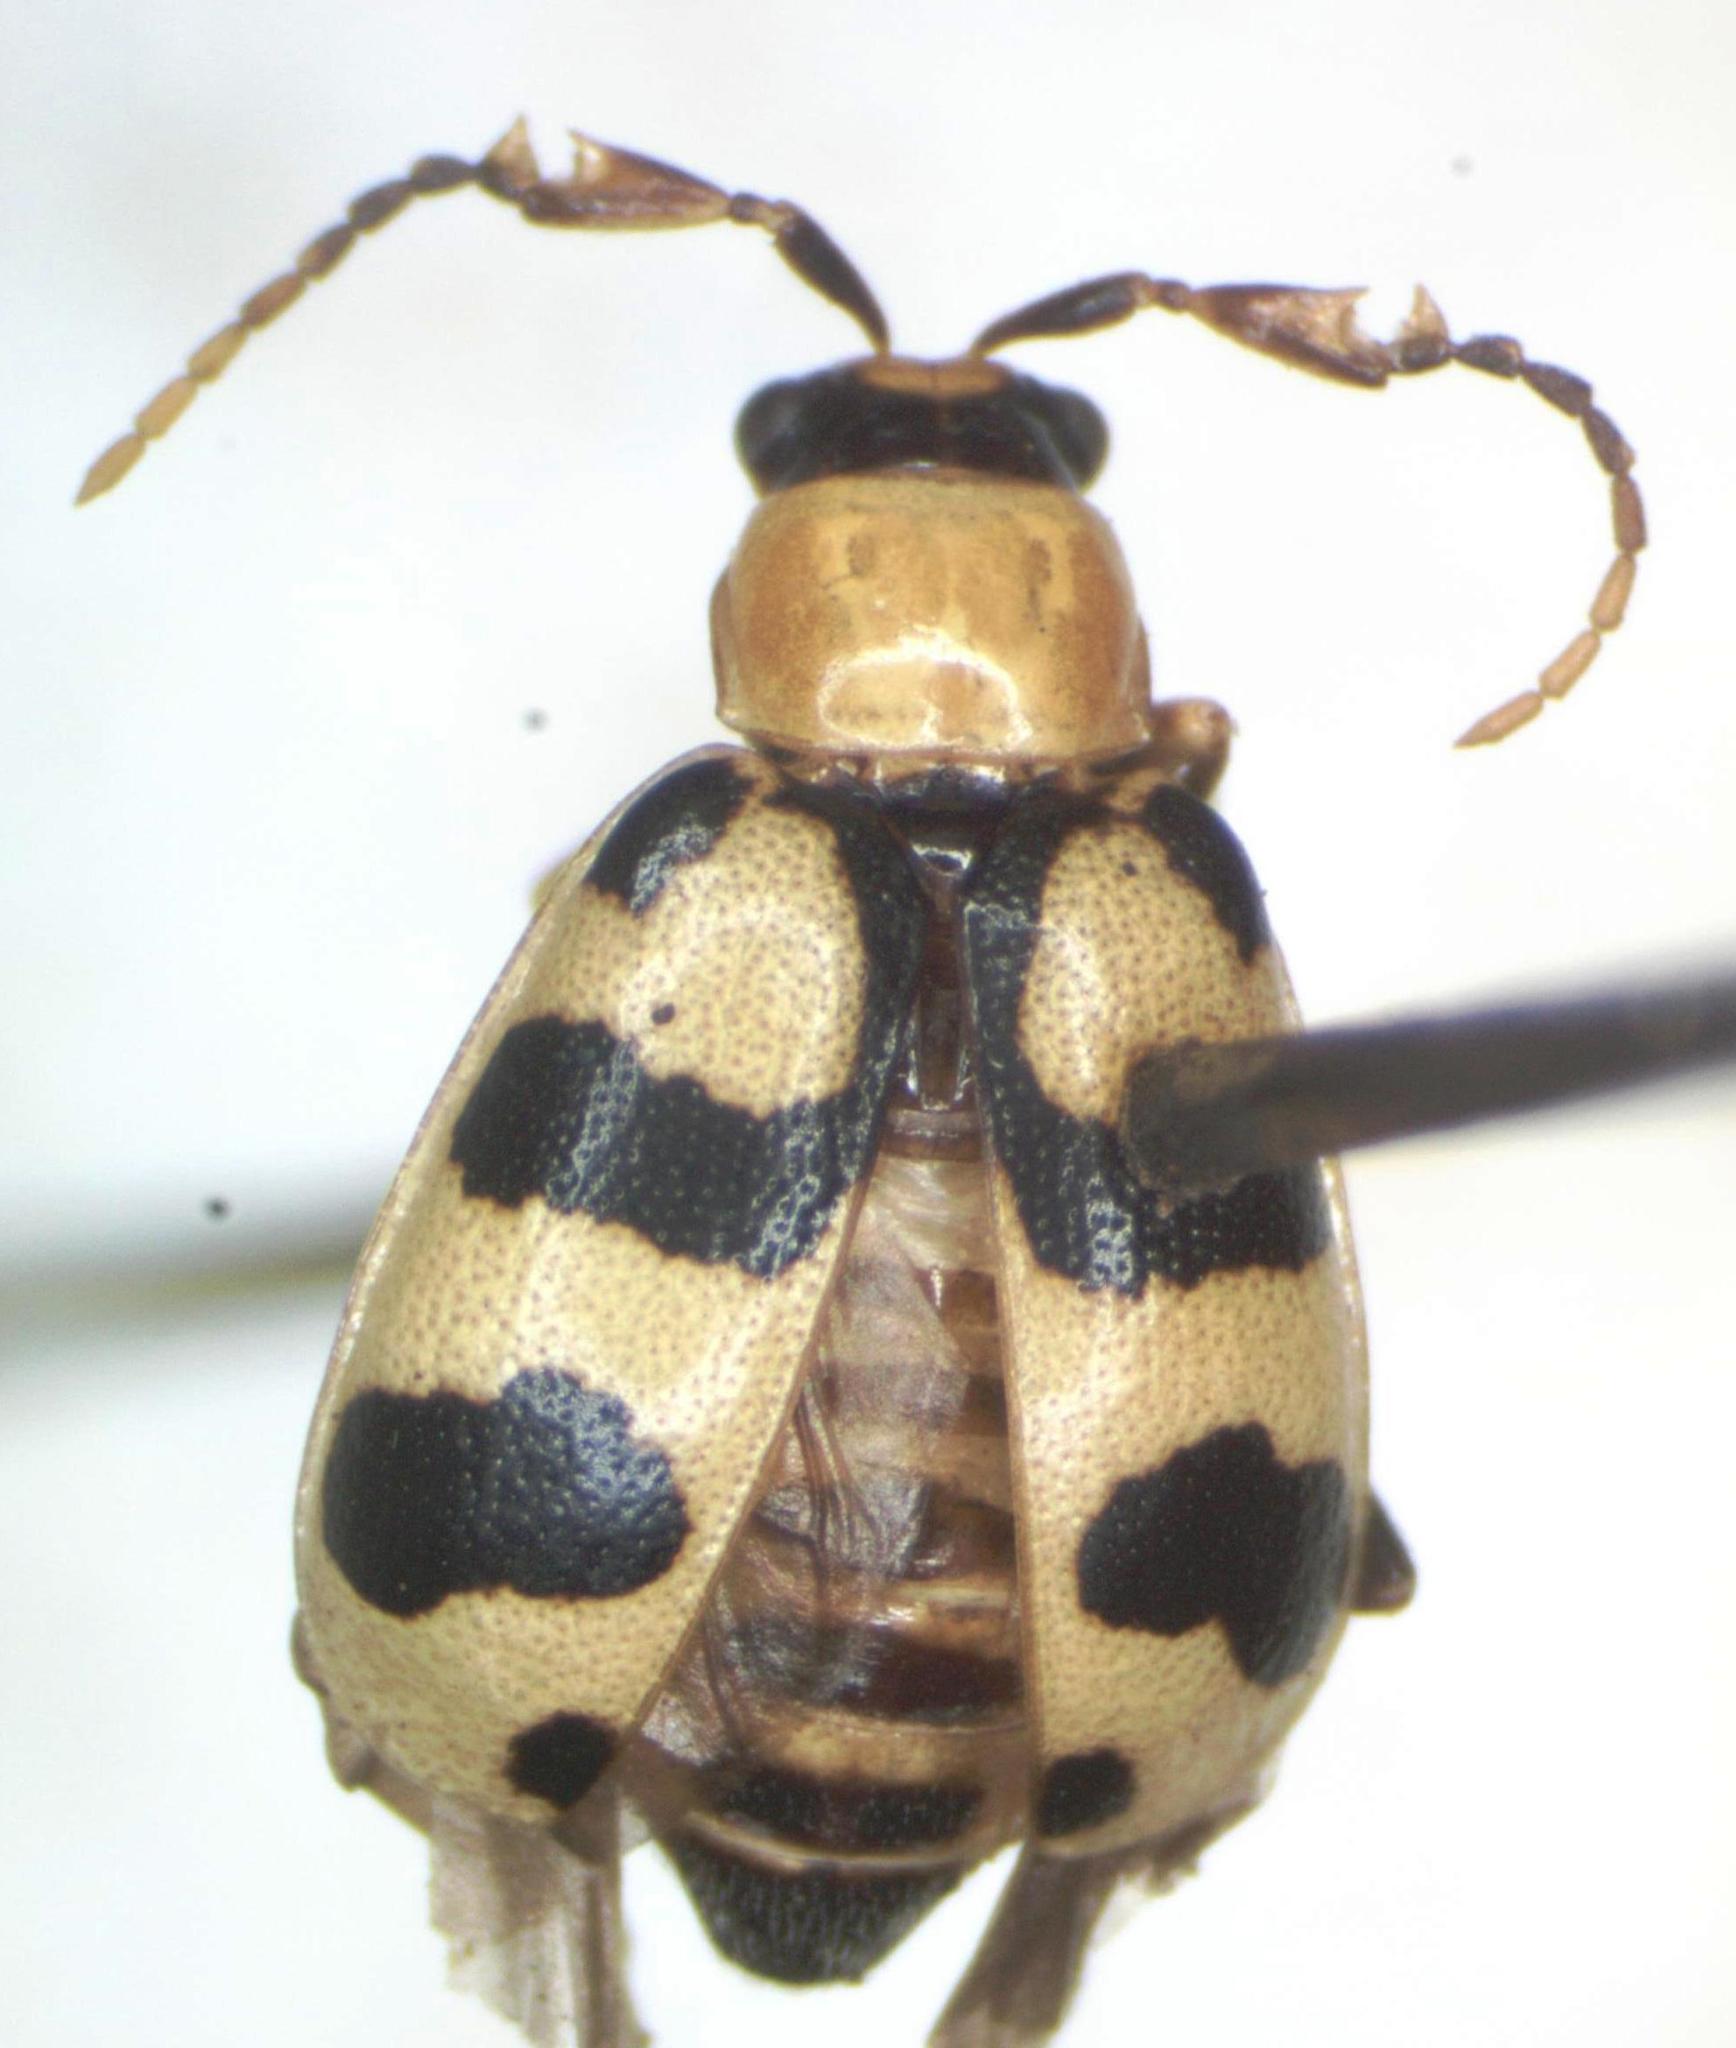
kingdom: Animalia
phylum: Arthropoda
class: Insecta
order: Coleoptera
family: Chrysomelidae
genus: Cerotoma
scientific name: Cerotoma atrofasciata
